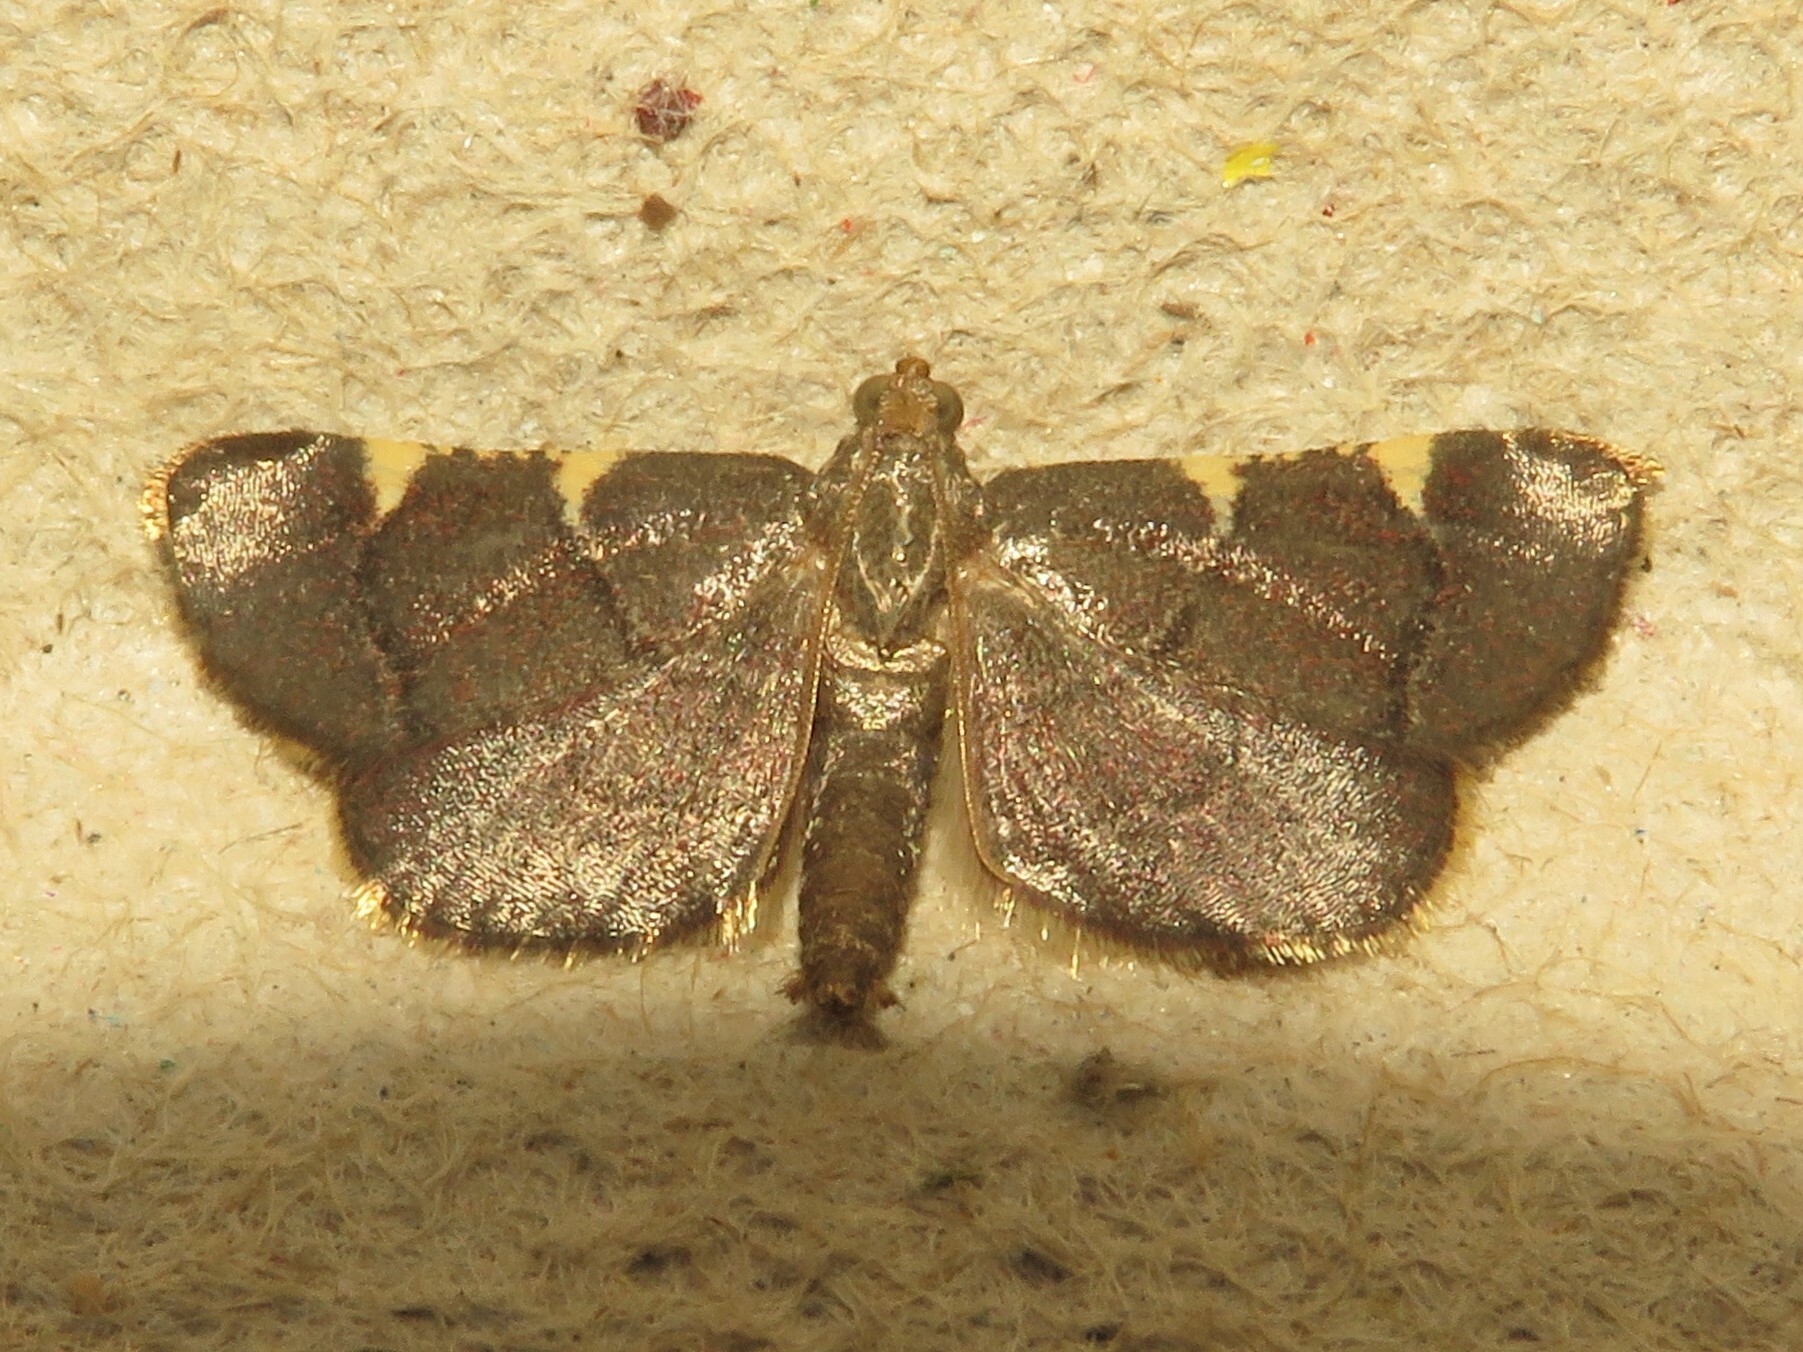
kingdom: Animalia
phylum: Arthropoda
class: Insecta
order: Lepidoptera
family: Pyralidae
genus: Hypsopygia
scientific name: Hypsopygia olinalis
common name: Yellow-fringed dolichomia moth
